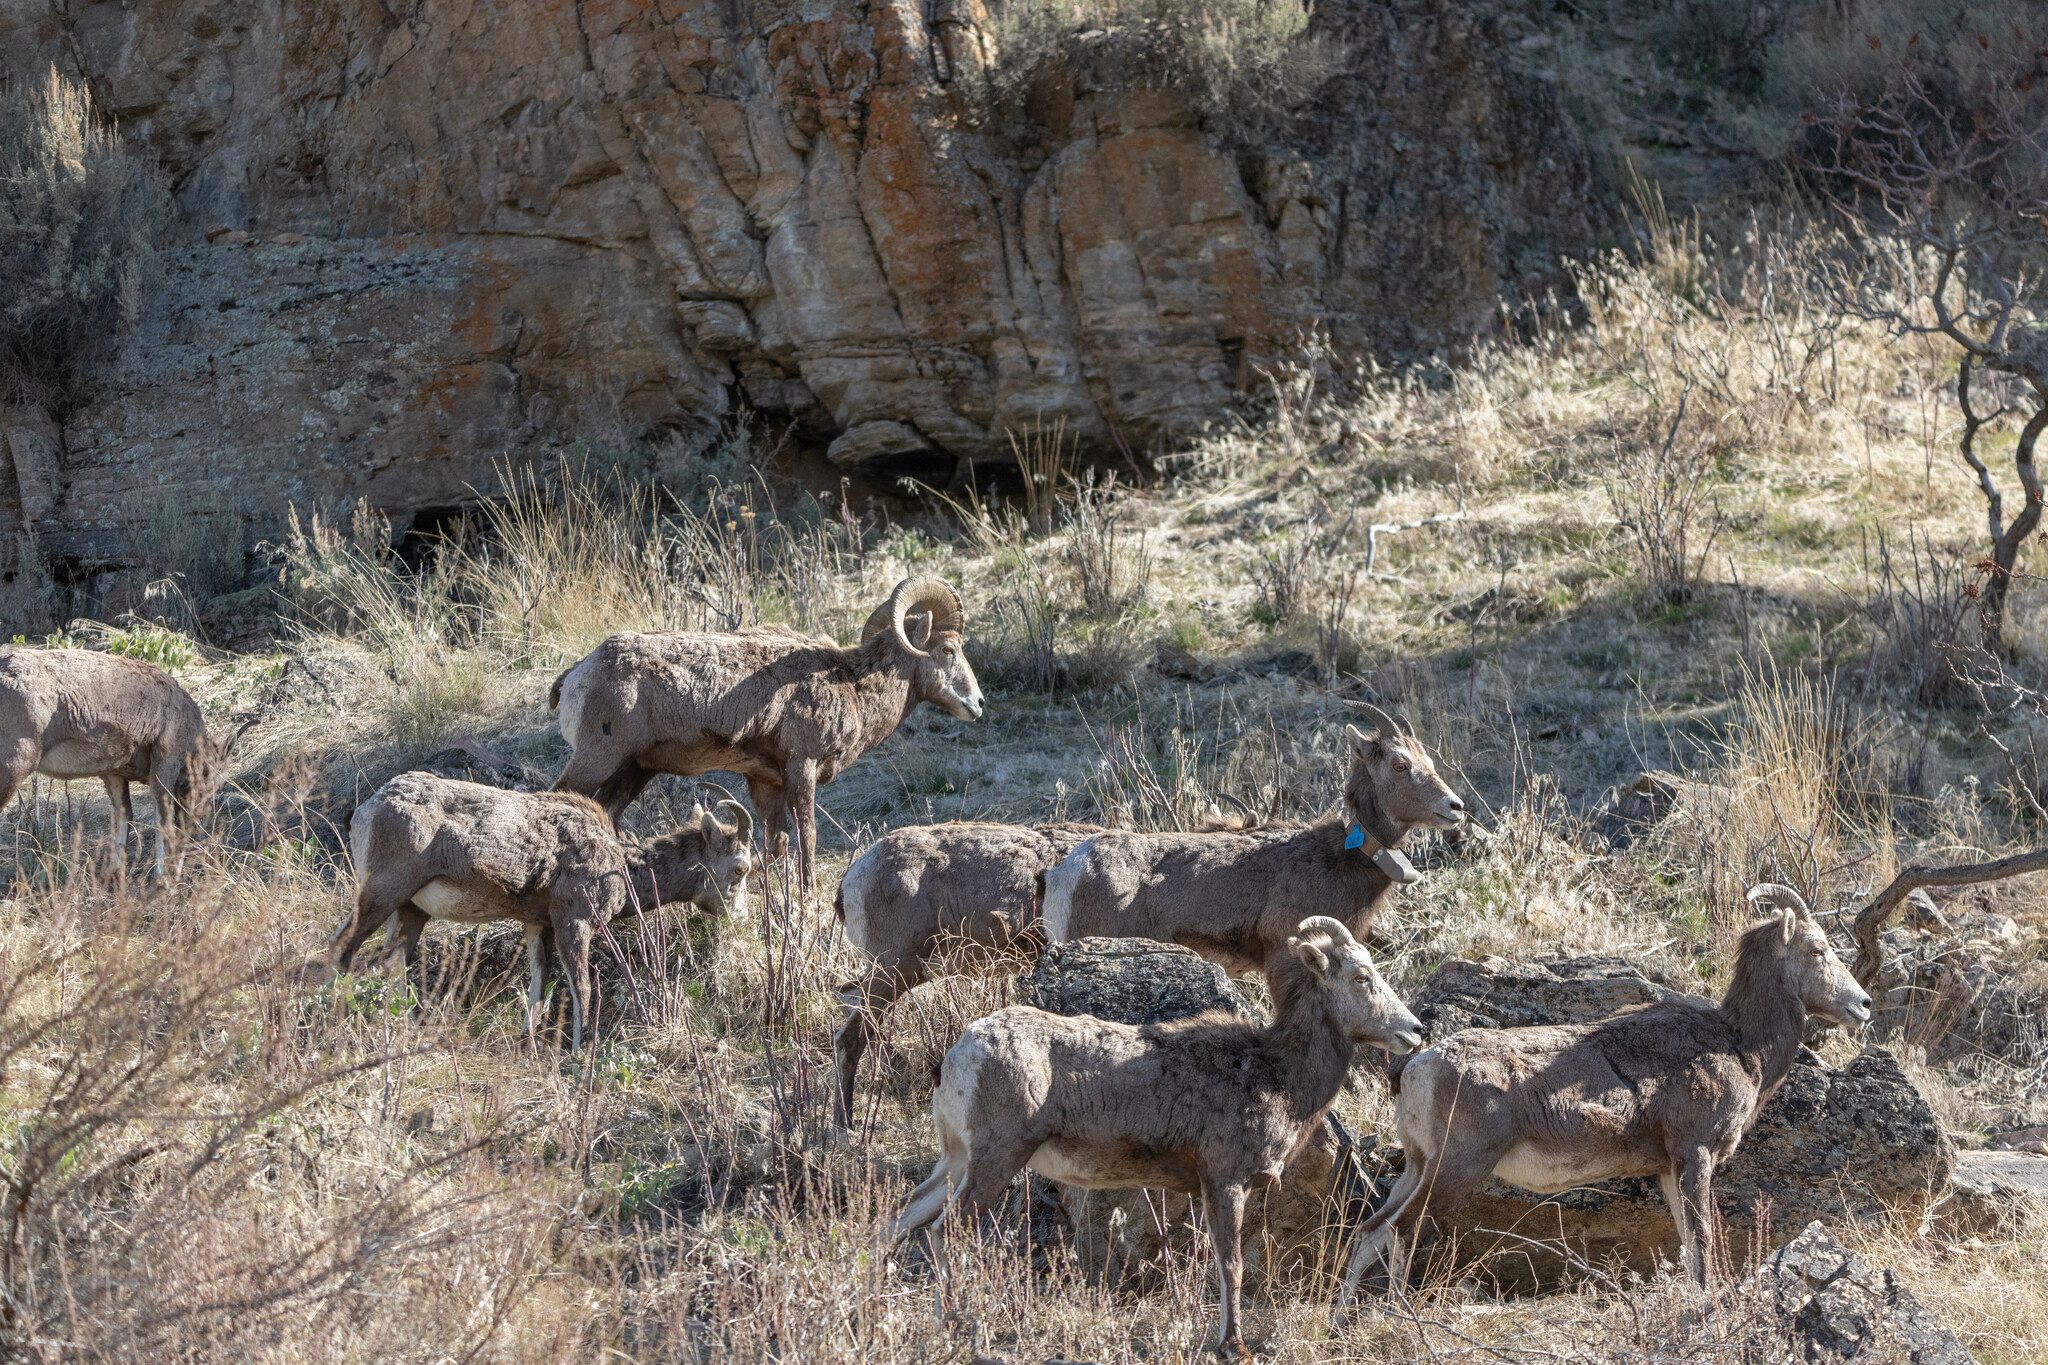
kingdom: Animalia
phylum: Chordata
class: Mammalia
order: Artiodactyla
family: Bovidae
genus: Ovis
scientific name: Ovis canadensis
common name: Bighorn sheep
